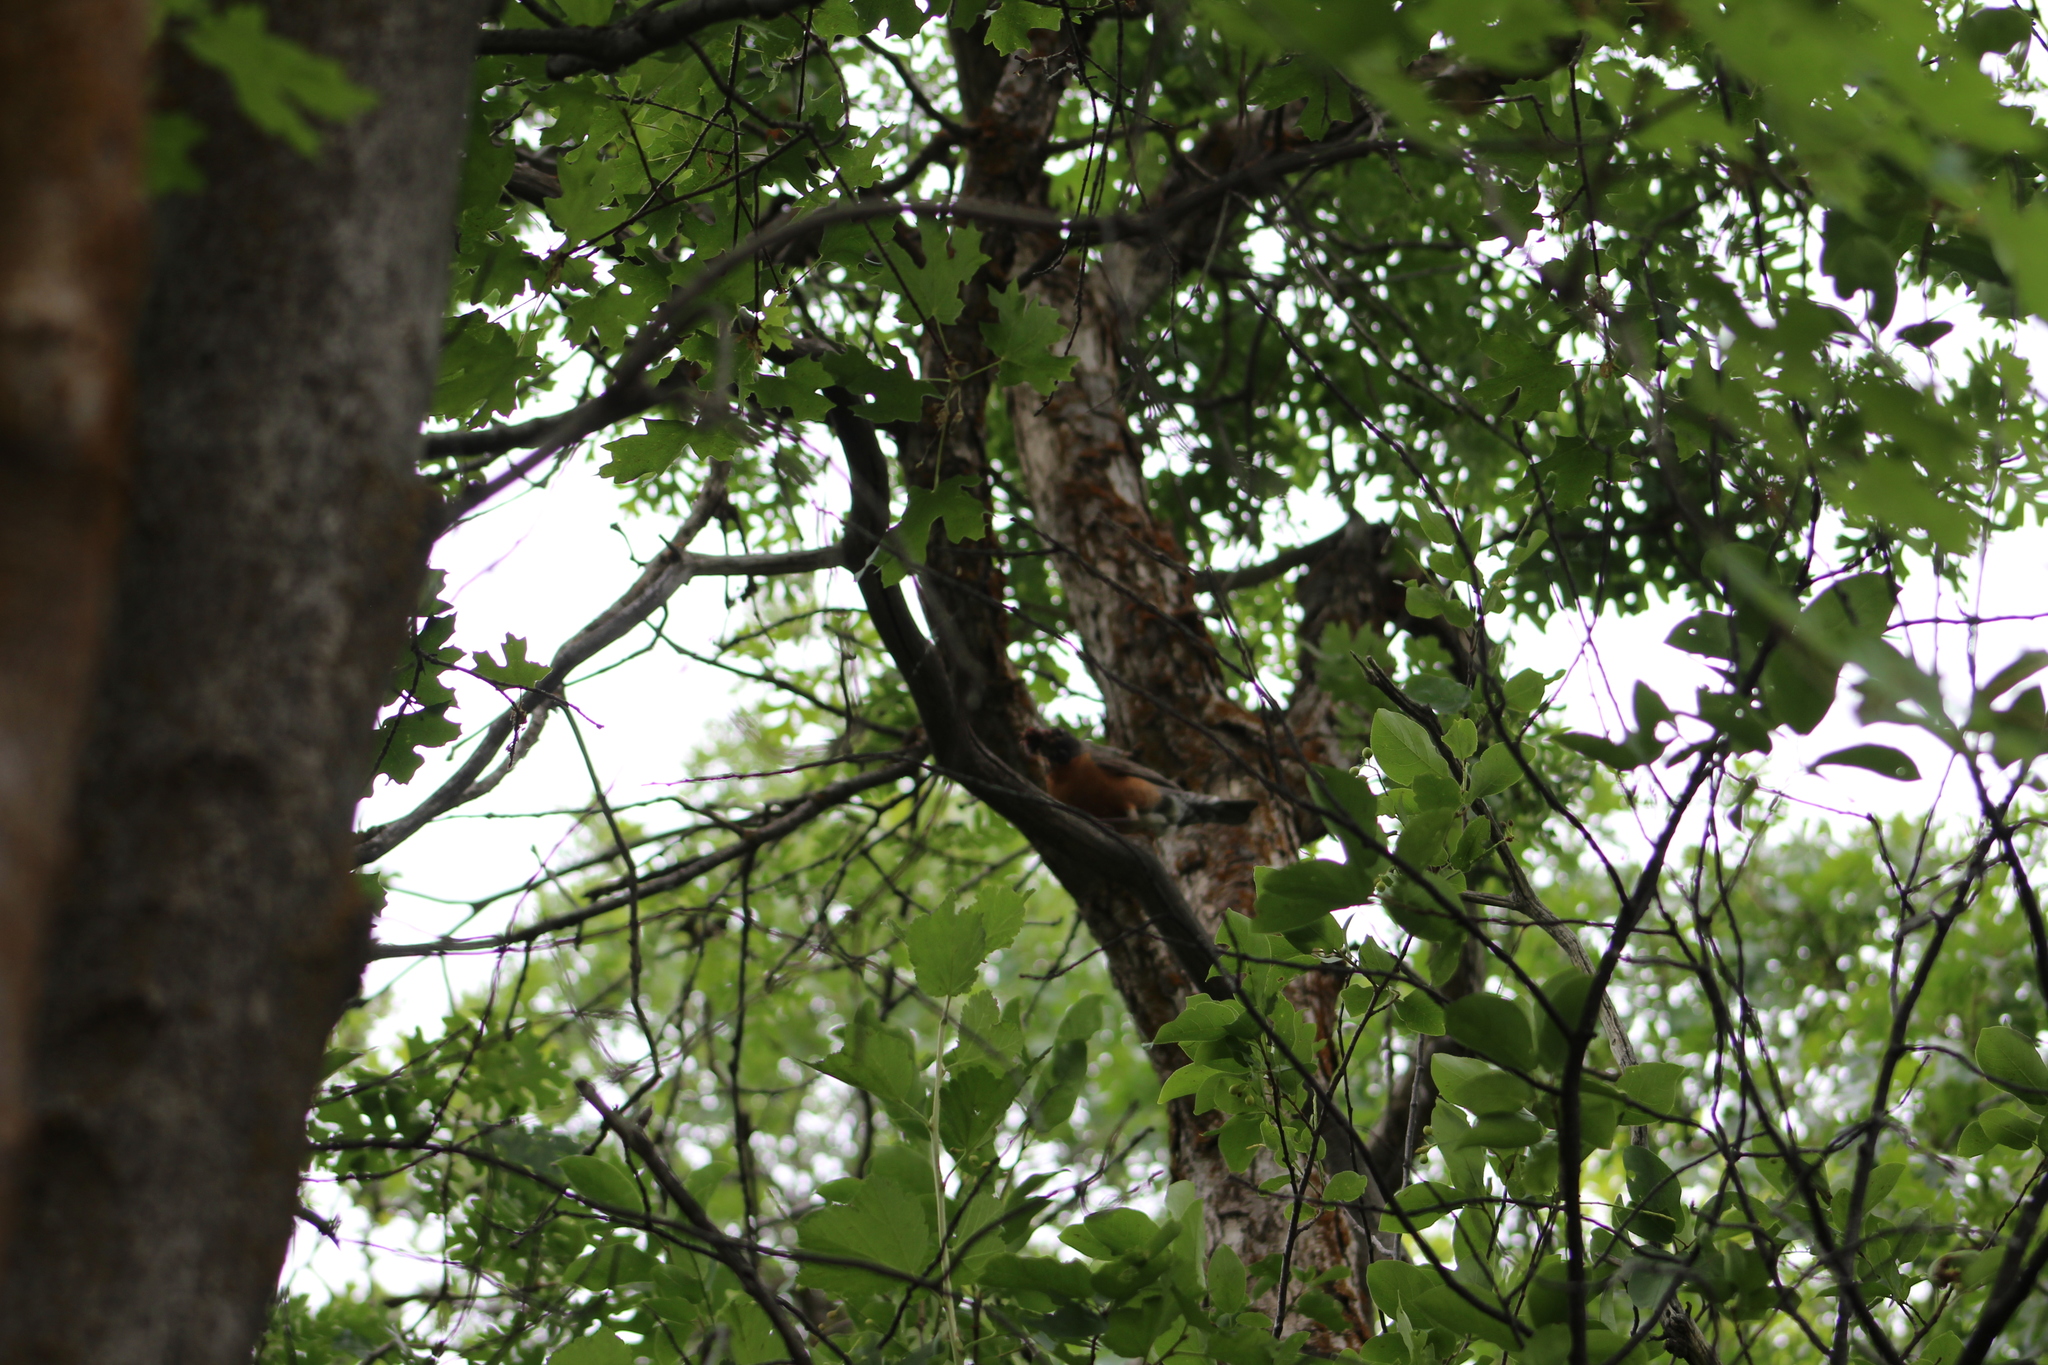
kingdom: Animalia
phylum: Chordata
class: Aves
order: Passeriformes
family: Turdidae
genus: Turdus
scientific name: Turdus migratorius
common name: American robin
